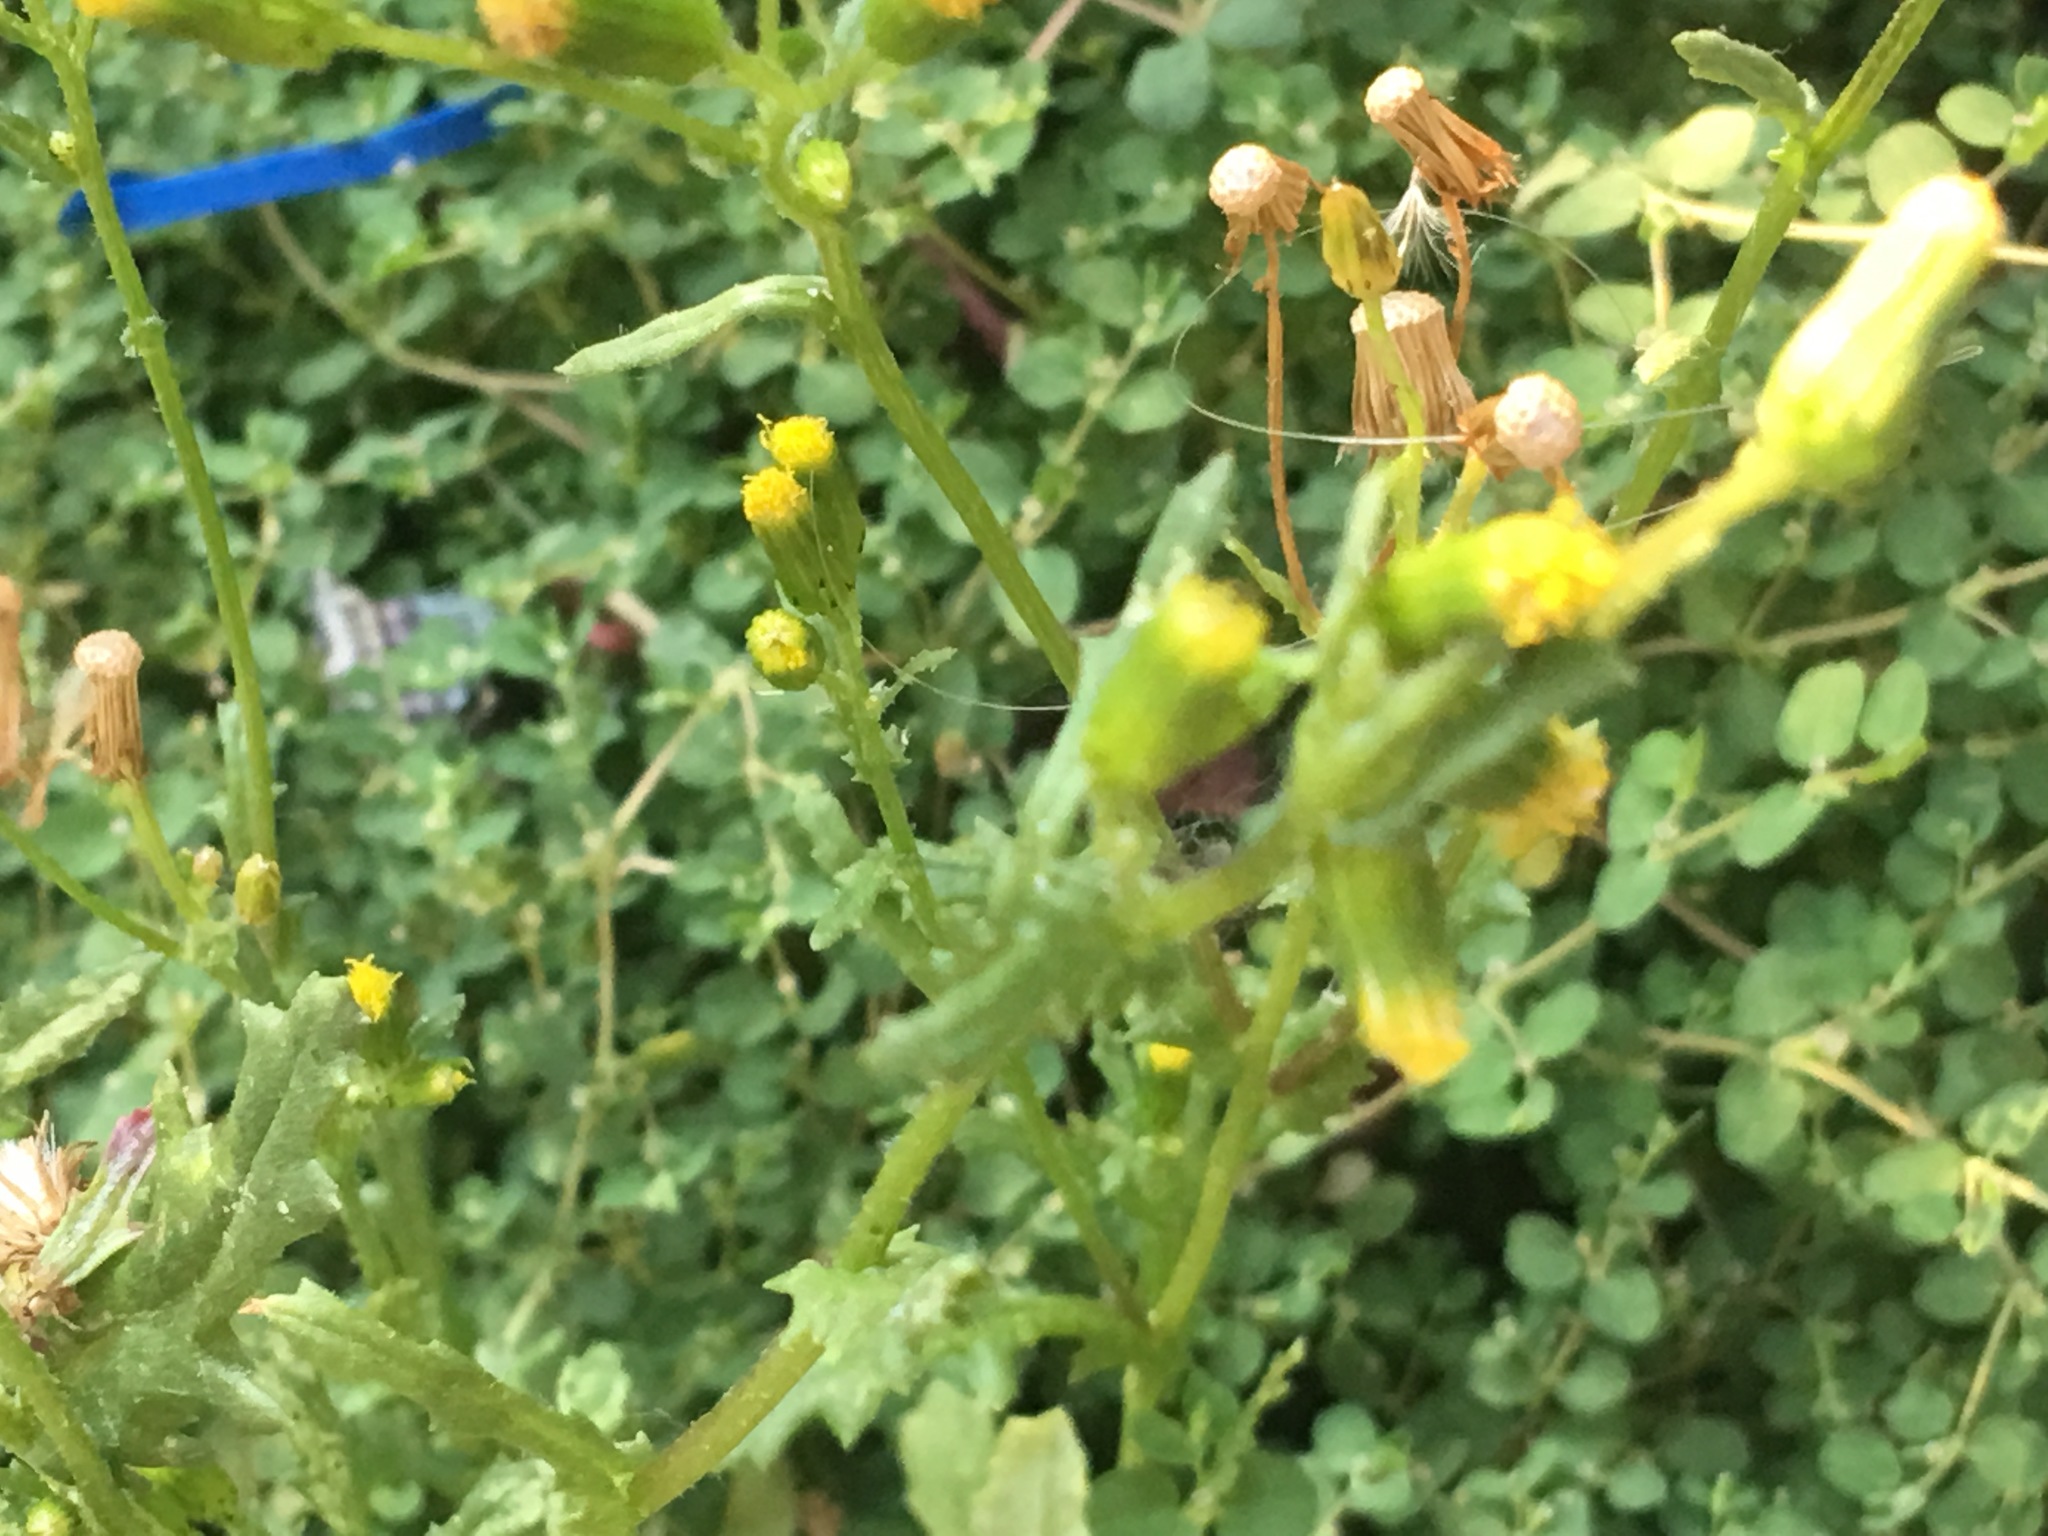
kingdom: Plantae
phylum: Tracheophyta
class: Magnoliopsida
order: Asterales
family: Asteraceae
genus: Senecio
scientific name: Senecio vulgaris
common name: Old-man-in-the-spring
